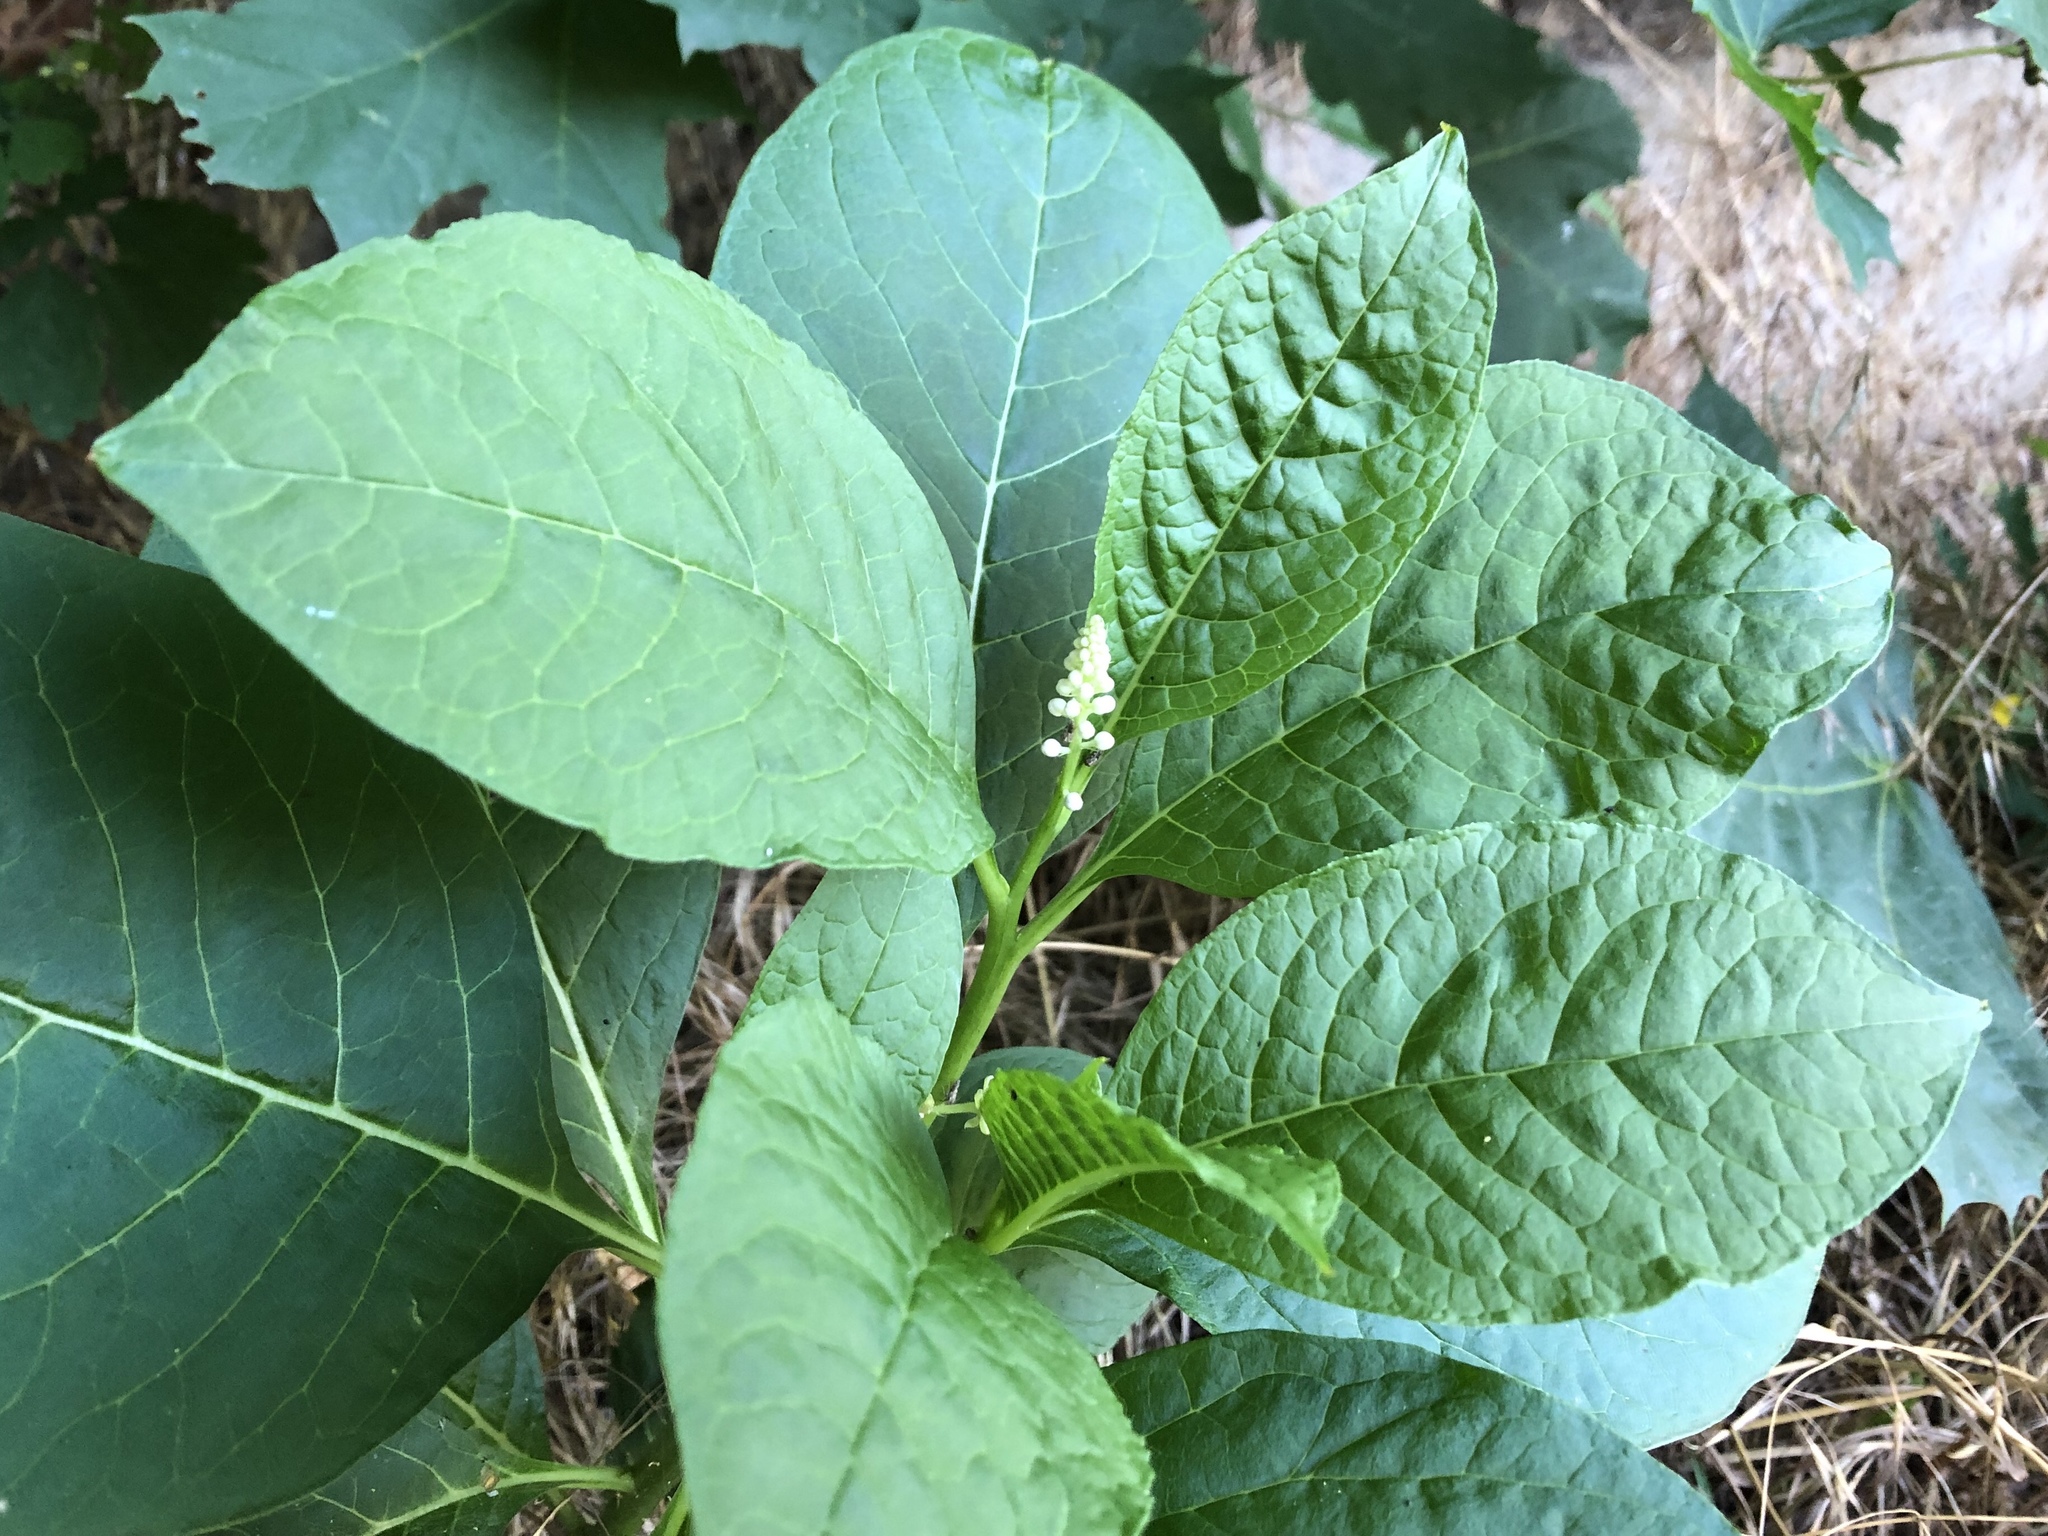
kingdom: Plantae
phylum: Tracheophyta
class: Magnoliopsida
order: Caryophyllales
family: Phytolaccaceae
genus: Phytolacca
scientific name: Phytolacca acinosa
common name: Indian pokeweed
